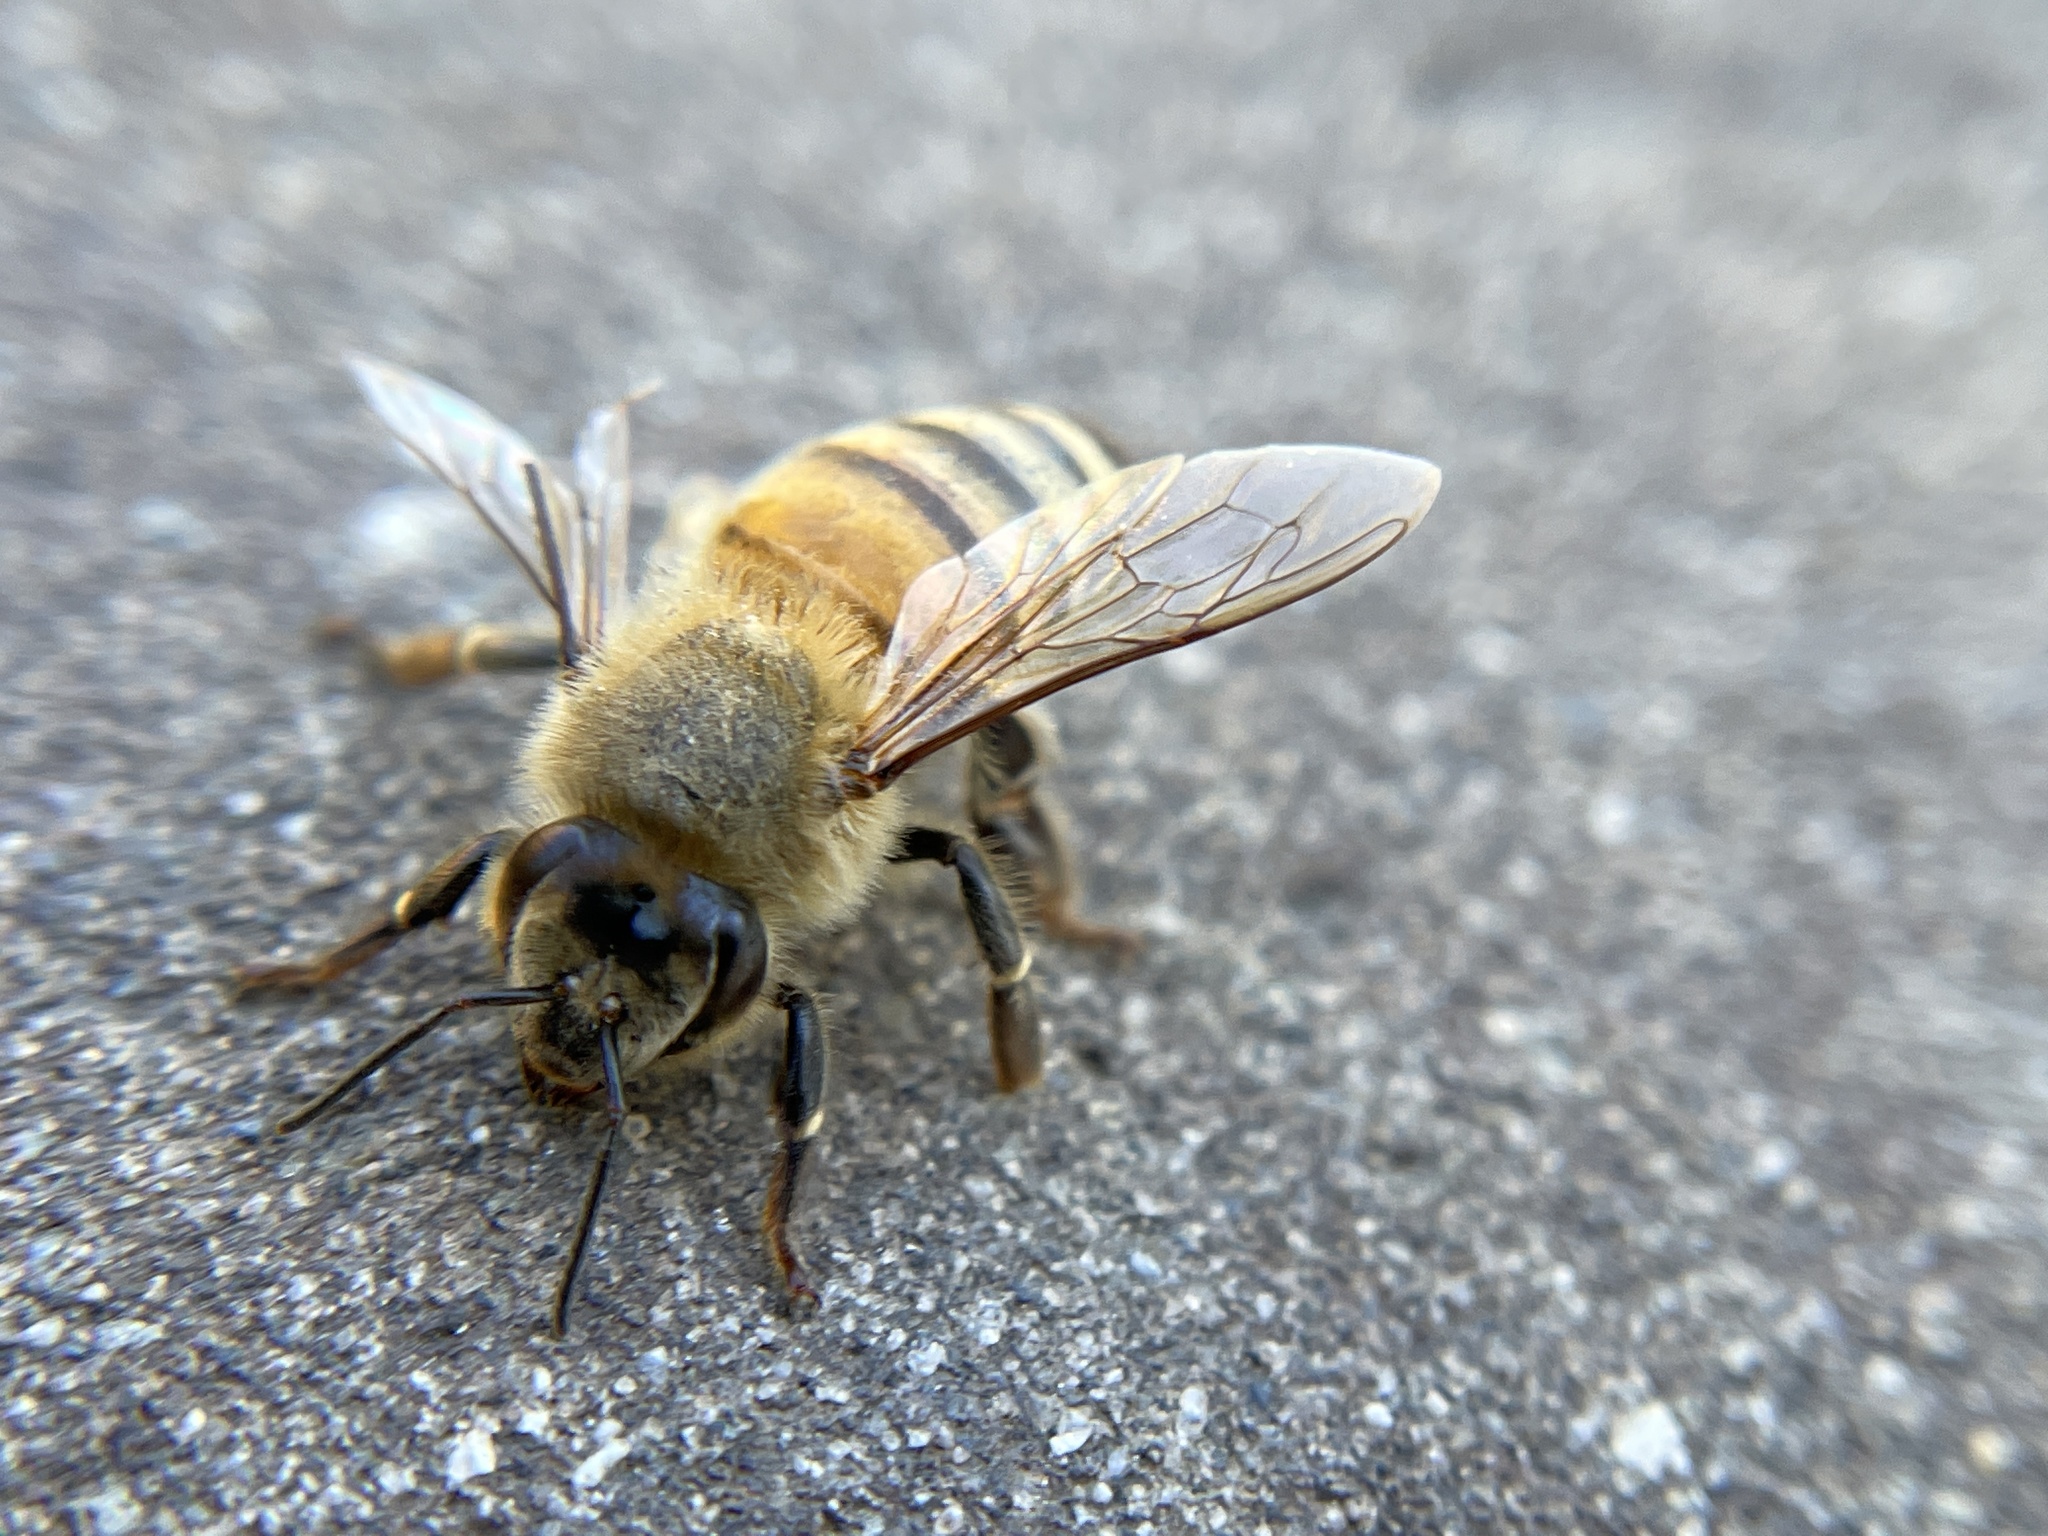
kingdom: Animalia
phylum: Arthropoda
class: Insecta
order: Hymenoptera
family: Apidae
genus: Apis
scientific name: Apis mellifera
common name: Honey bee
